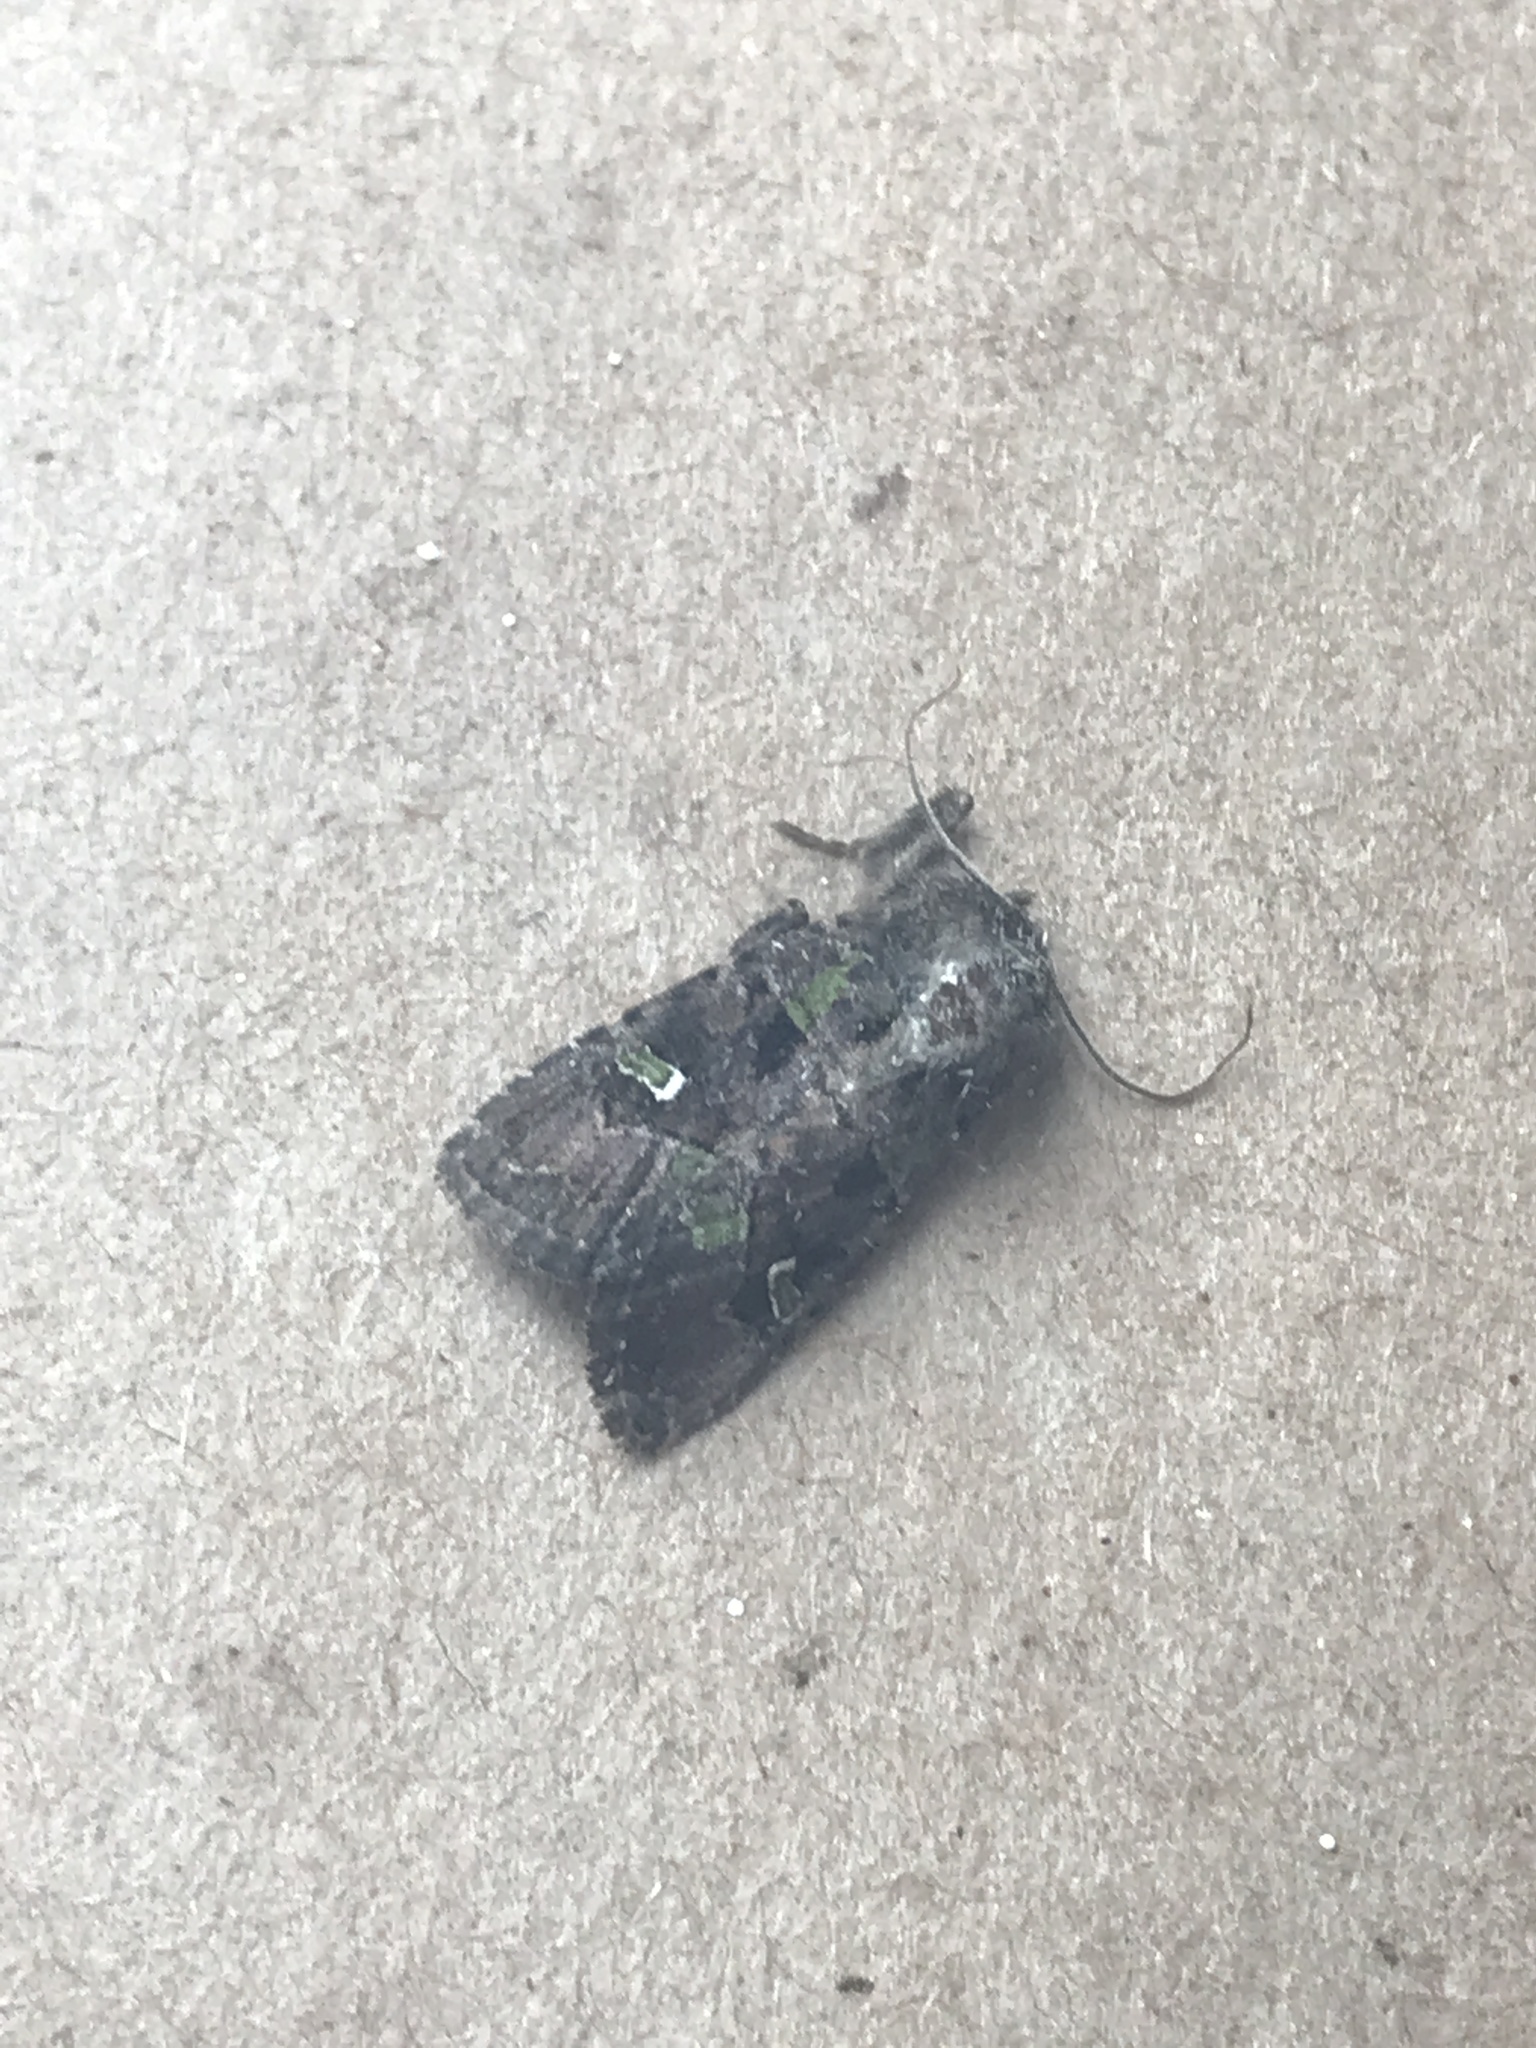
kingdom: Animalia
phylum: Arthropoda
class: Insecta
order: Lepidoptera
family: Noctuidae
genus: Lacinipolia
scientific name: Lacinipolia renigera
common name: Kidney-spotted minor
